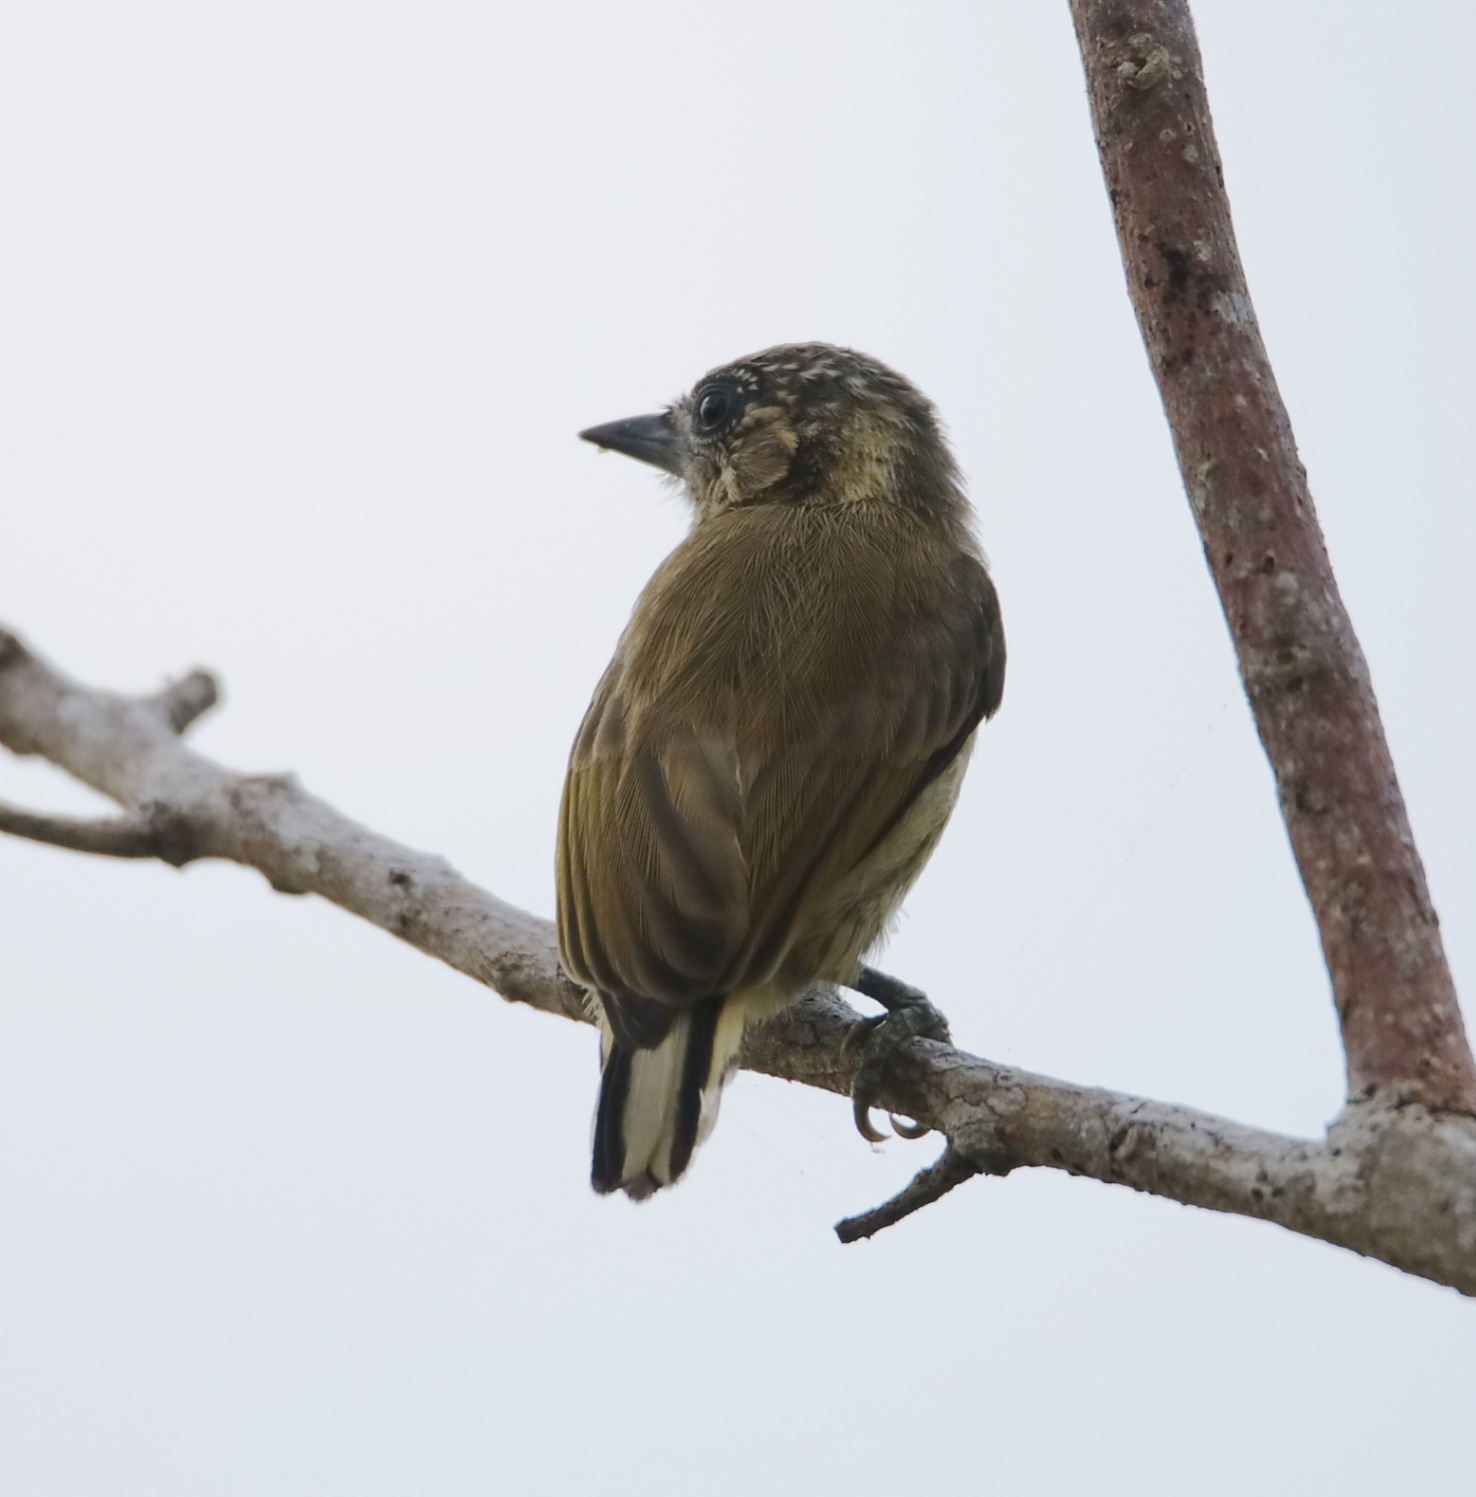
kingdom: Animalia
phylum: Chordata
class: Aves
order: Piciformes
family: Picidae
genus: Picumnus
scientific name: Picumnus olivaceus
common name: Olivaceous piculet
